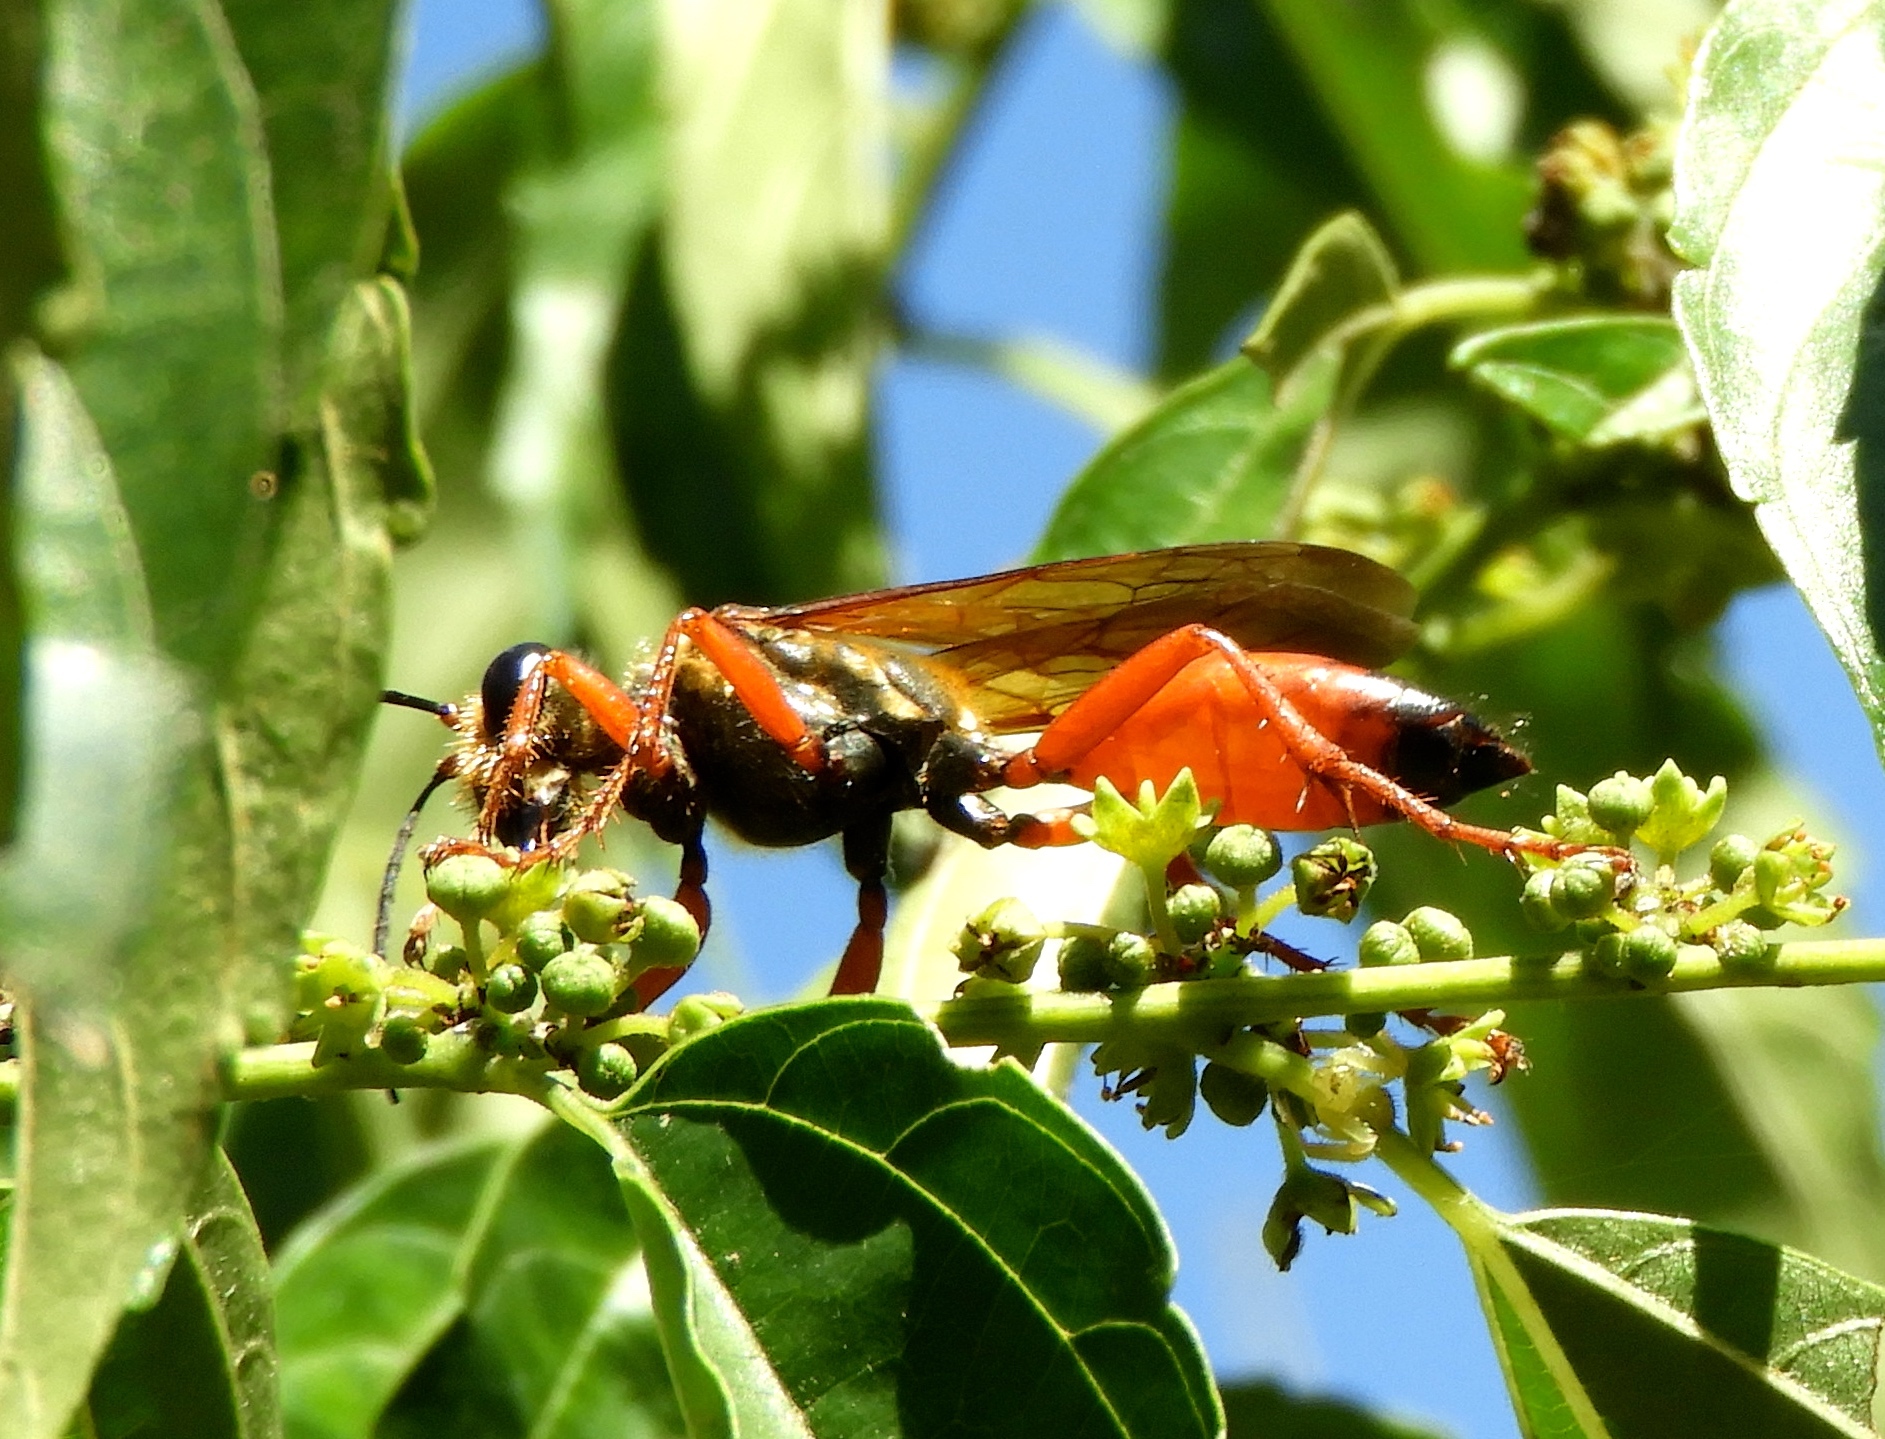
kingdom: Animalia
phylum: Arthropoda
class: Insecta
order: Hymenoptera
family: Sphecidae
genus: Sphex
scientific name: Sphex ichneumoneus
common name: Great golden digger wasp
